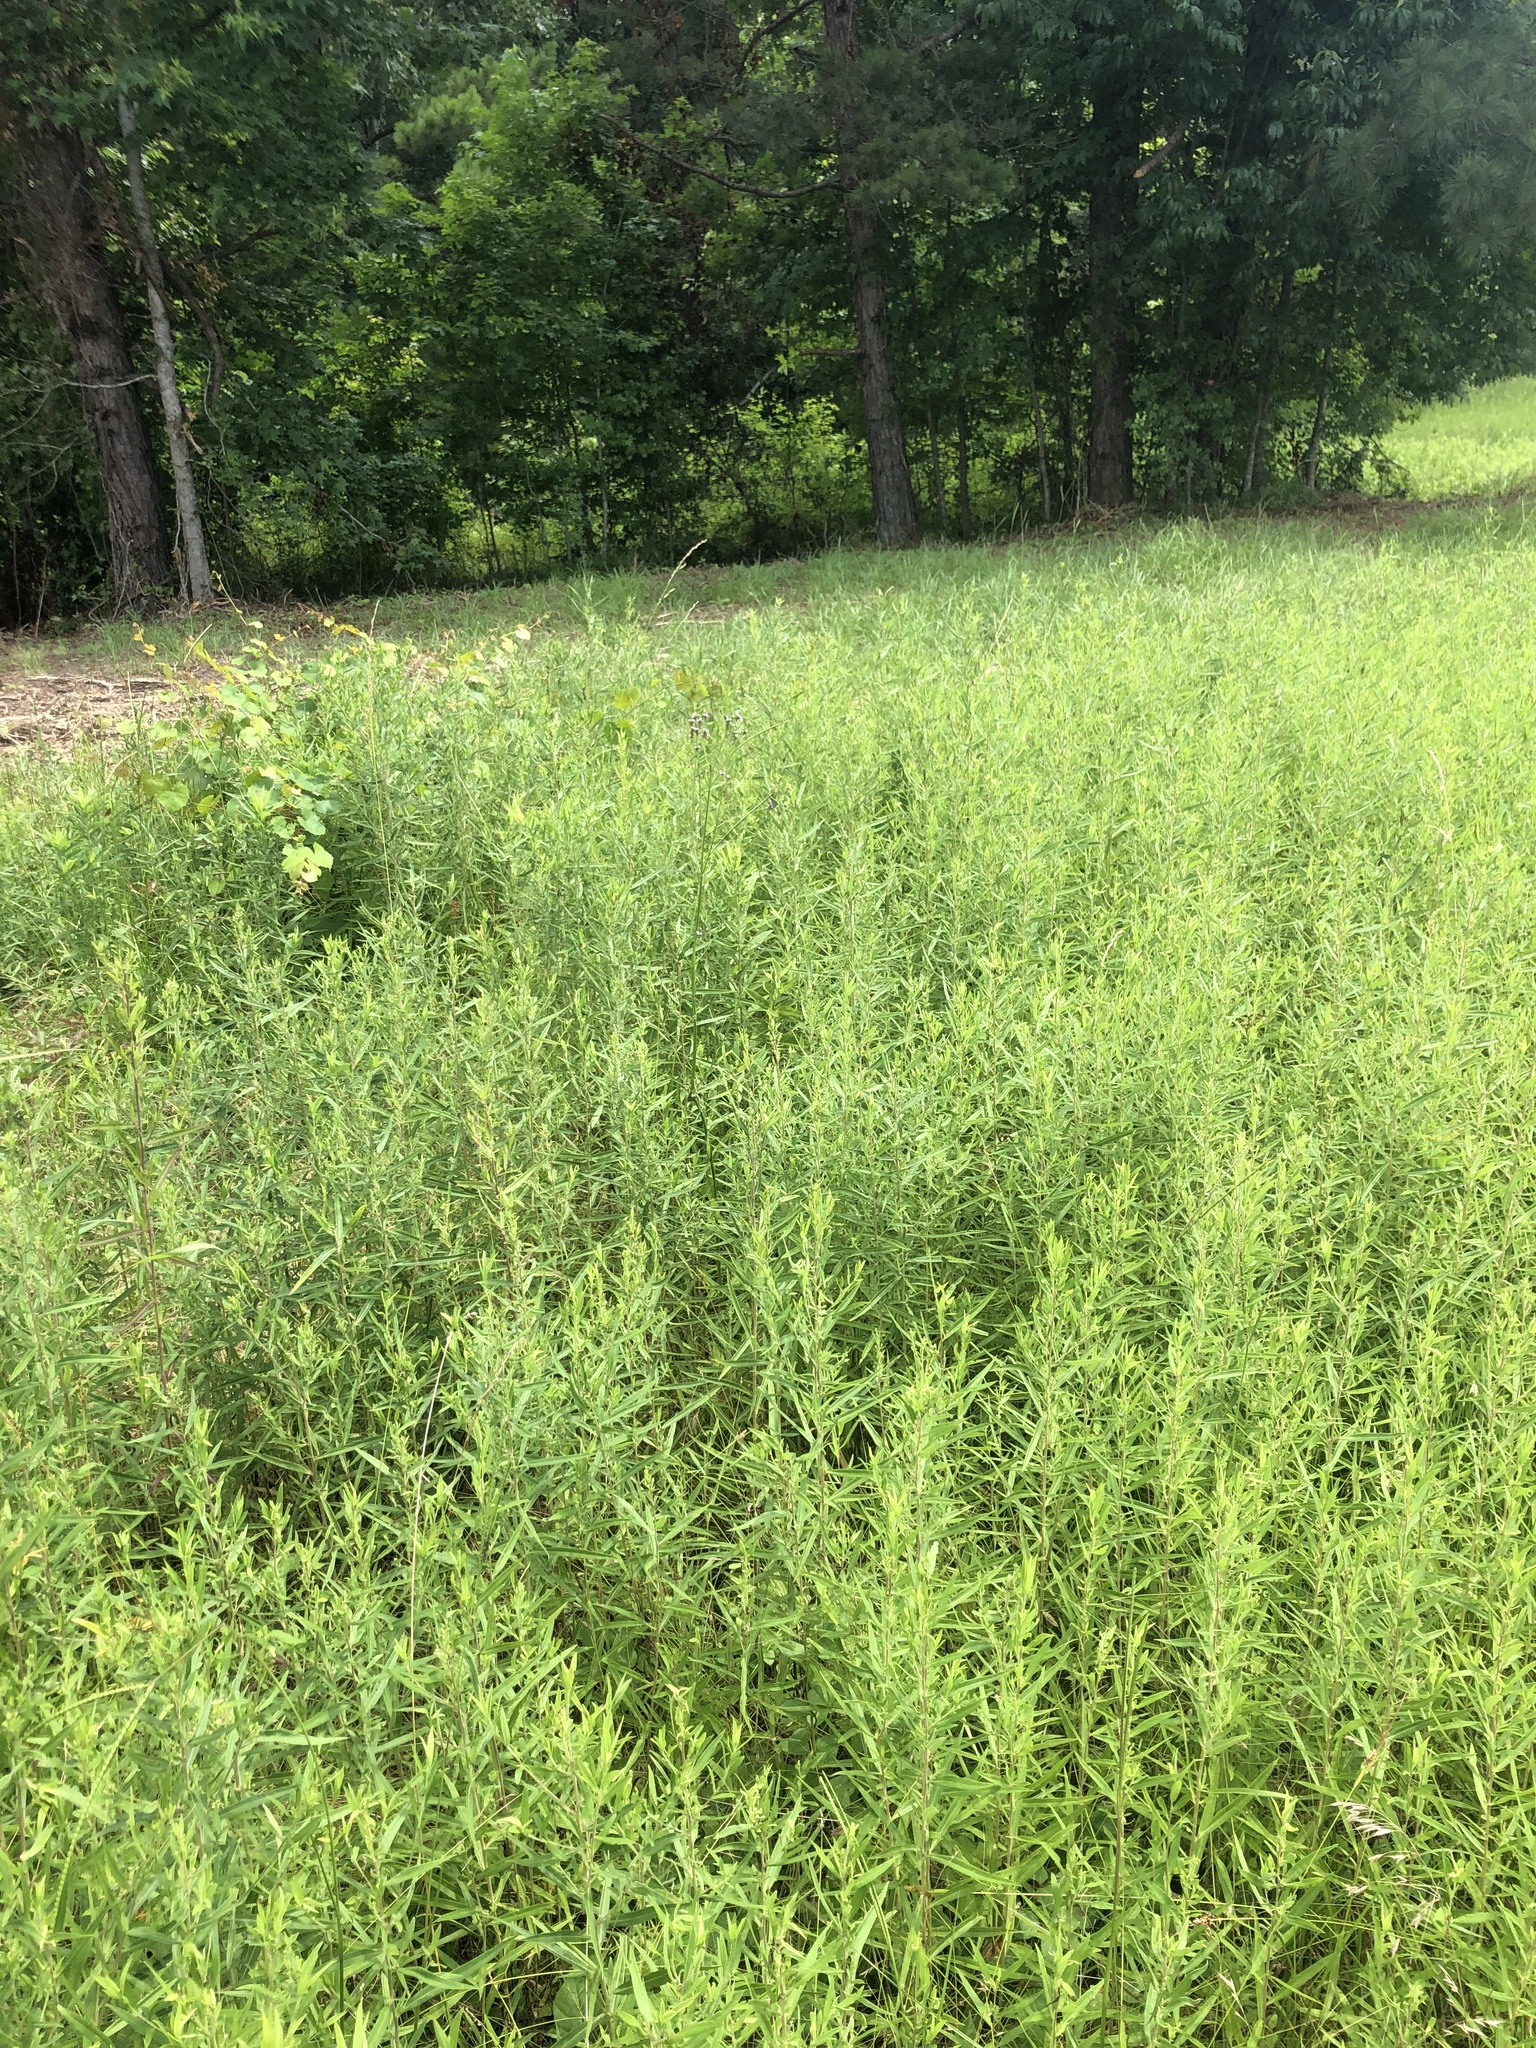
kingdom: Plantae
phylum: Tracheophyta
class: Magnoliopsida
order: Asterales
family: Asteraceae
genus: Symphyotrichum
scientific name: Symphyotrichum praealtum
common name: Willow aster
